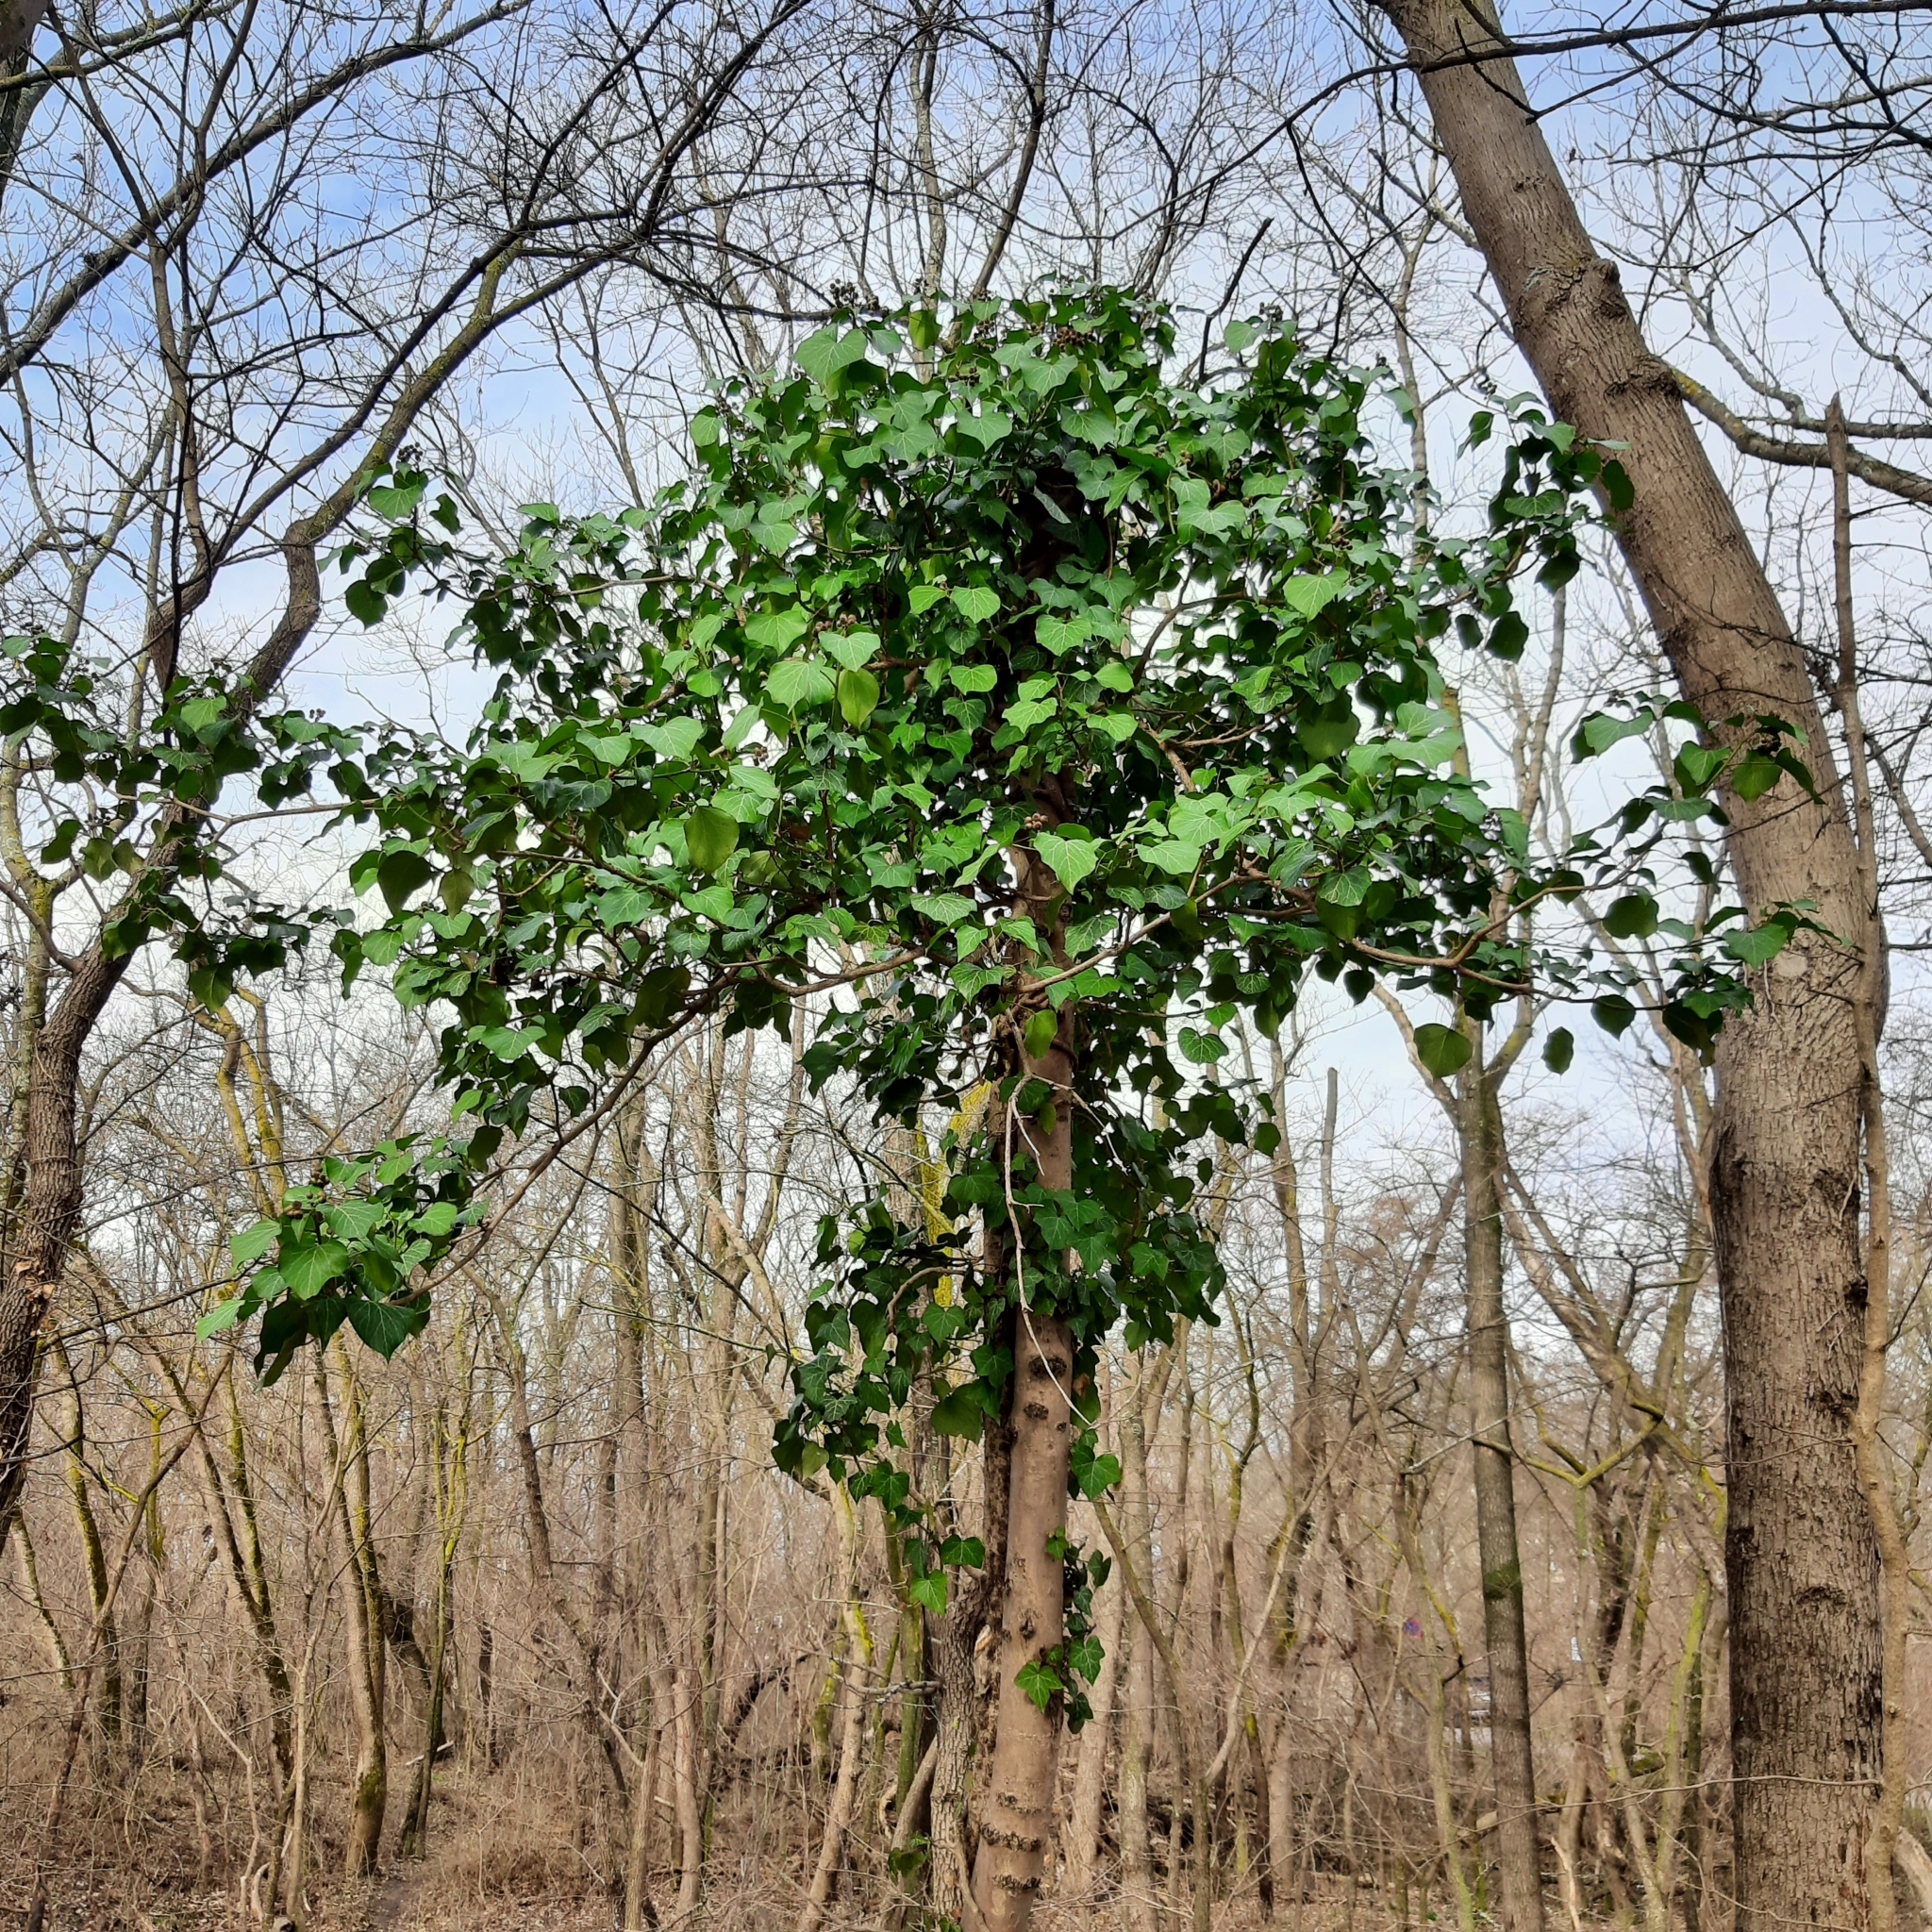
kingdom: Plantae
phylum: Tracheophyta
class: Magnoliopsida
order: Apiales
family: Araliaceae
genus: Hedera
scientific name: Hedera helix
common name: Ivy
